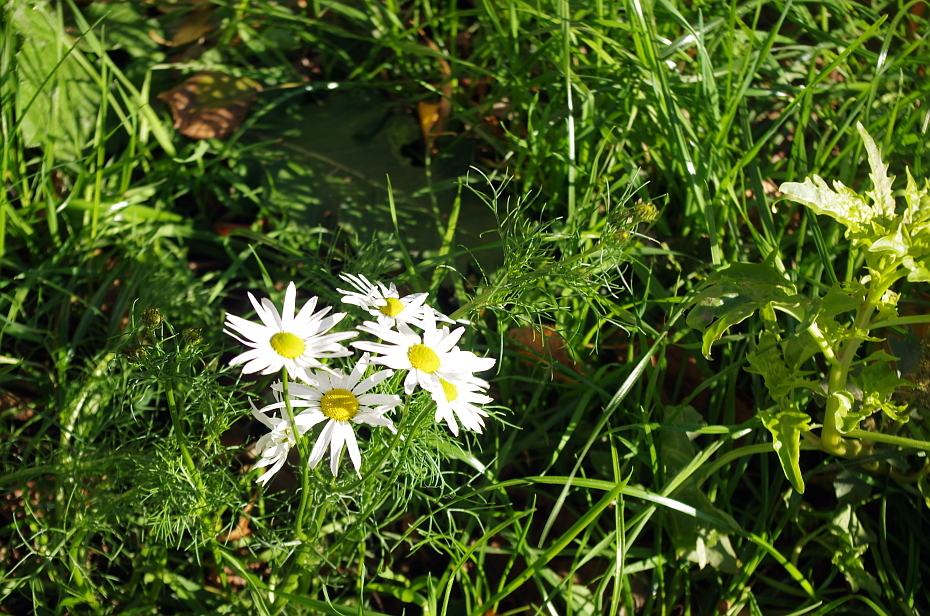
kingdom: Plantae
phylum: Tracheophyta
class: Magnoliopsida
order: Asterales
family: Asteraceae
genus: Tripleurospermum
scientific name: Tripleurospermum inodorum
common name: Scentless mayweed
